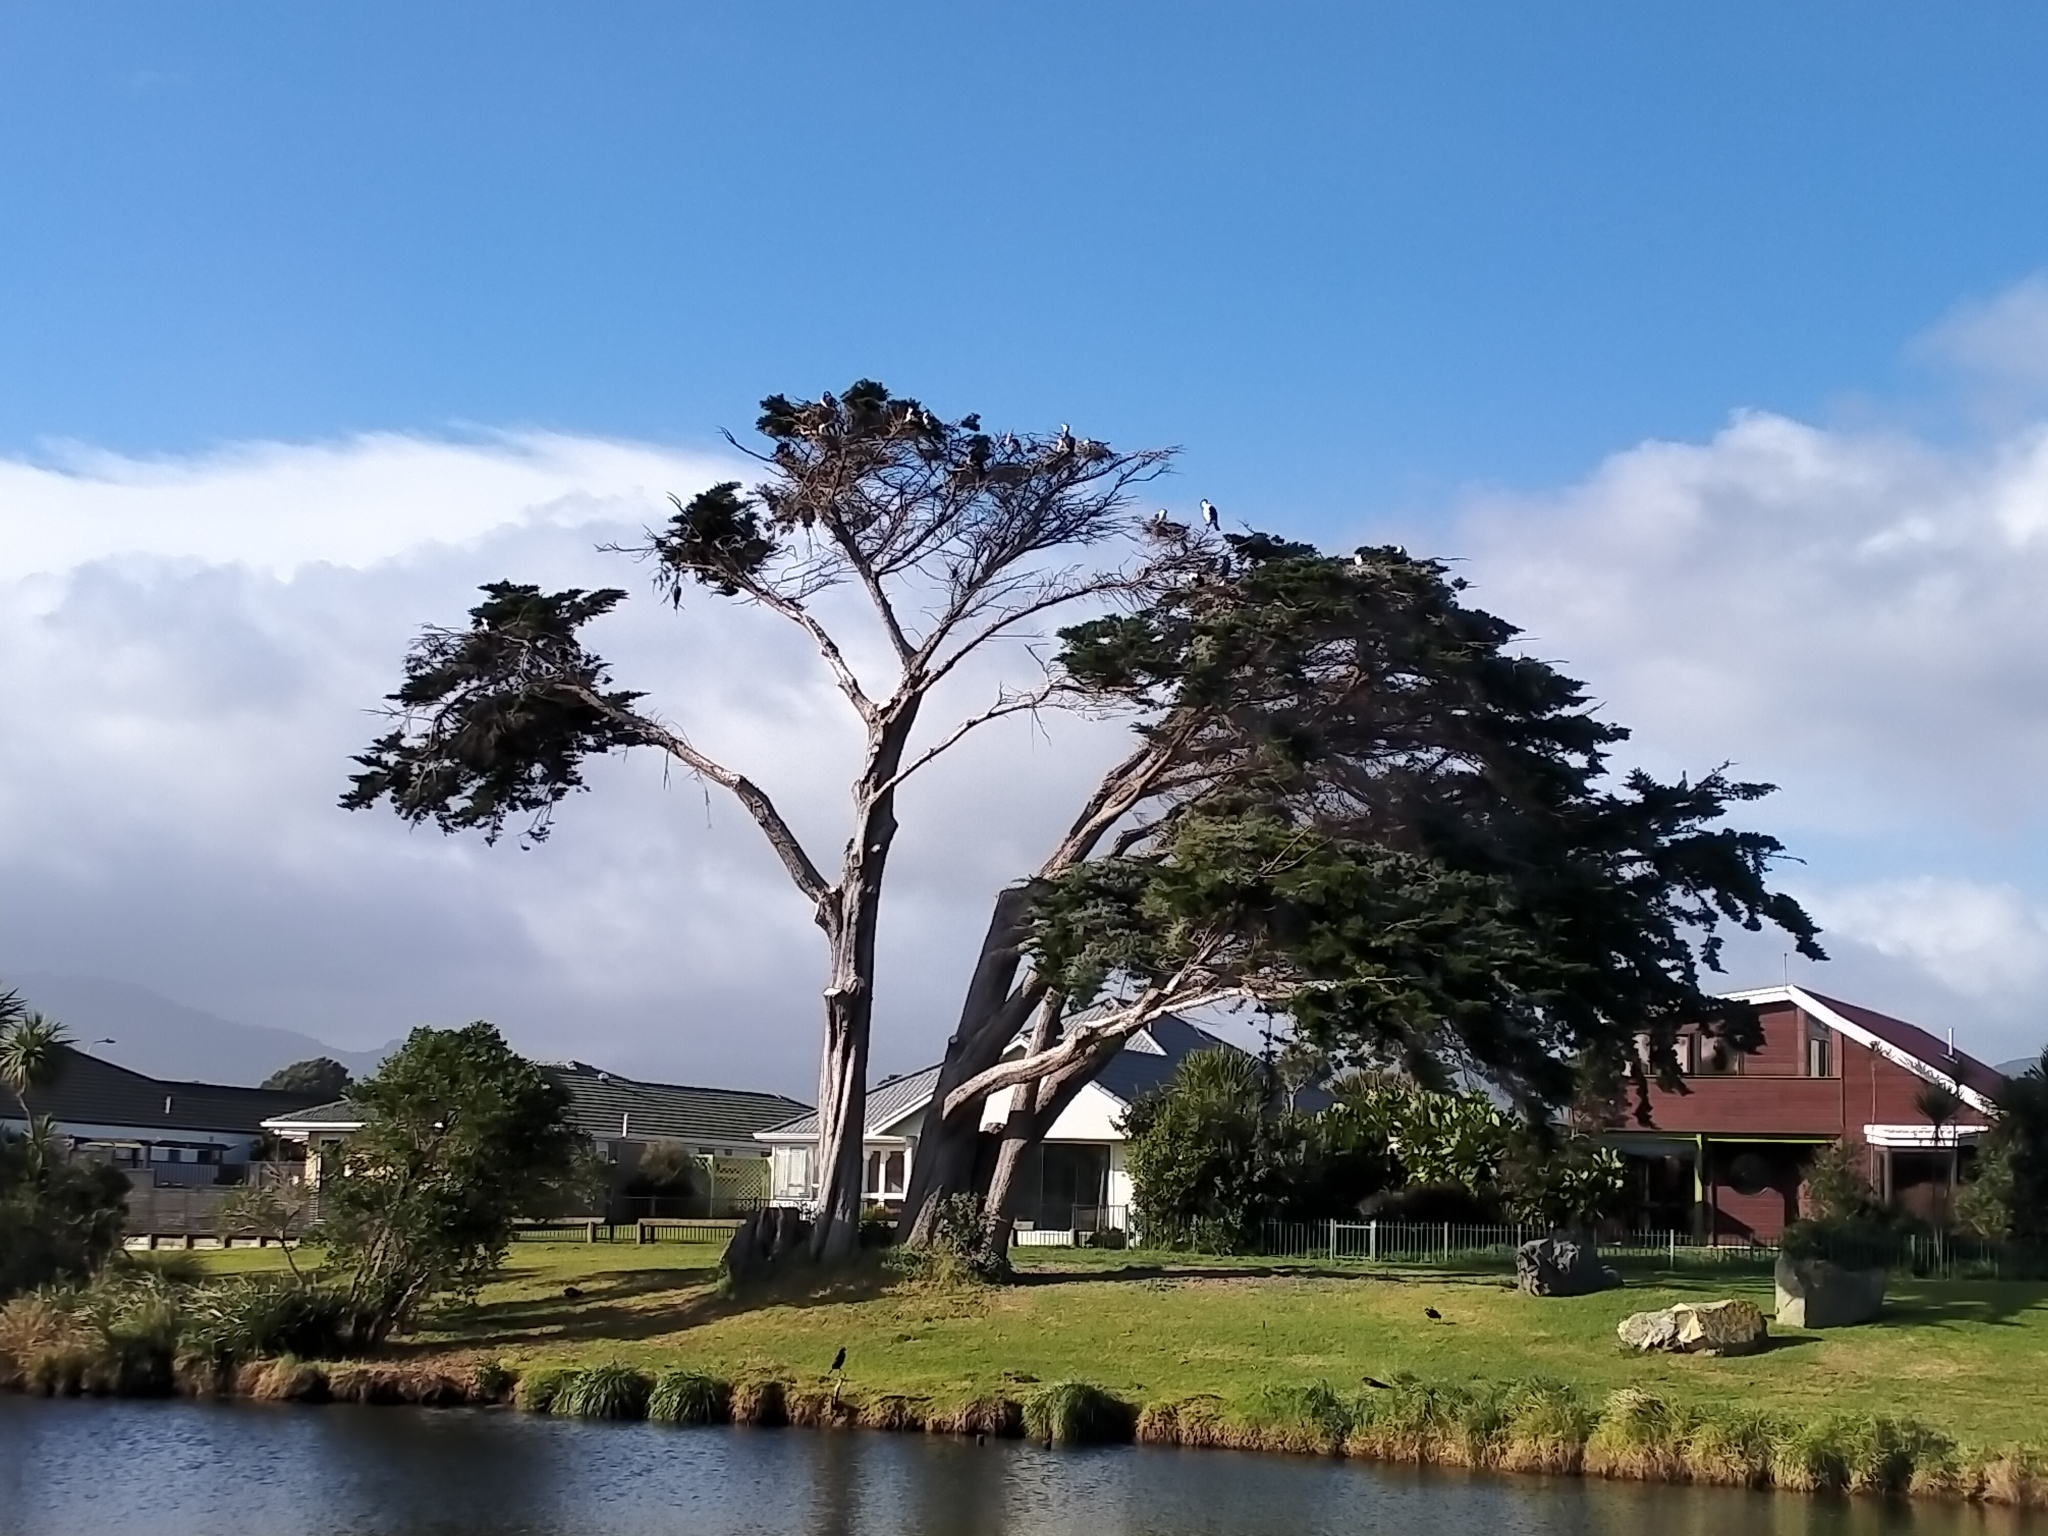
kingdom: Animalia
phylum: Chordata
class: Aves
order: Suliformes
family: Phalacrocoracidae
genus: Phalacrocorax
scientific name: Phalacrocorax varius
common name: Pied cormorant
